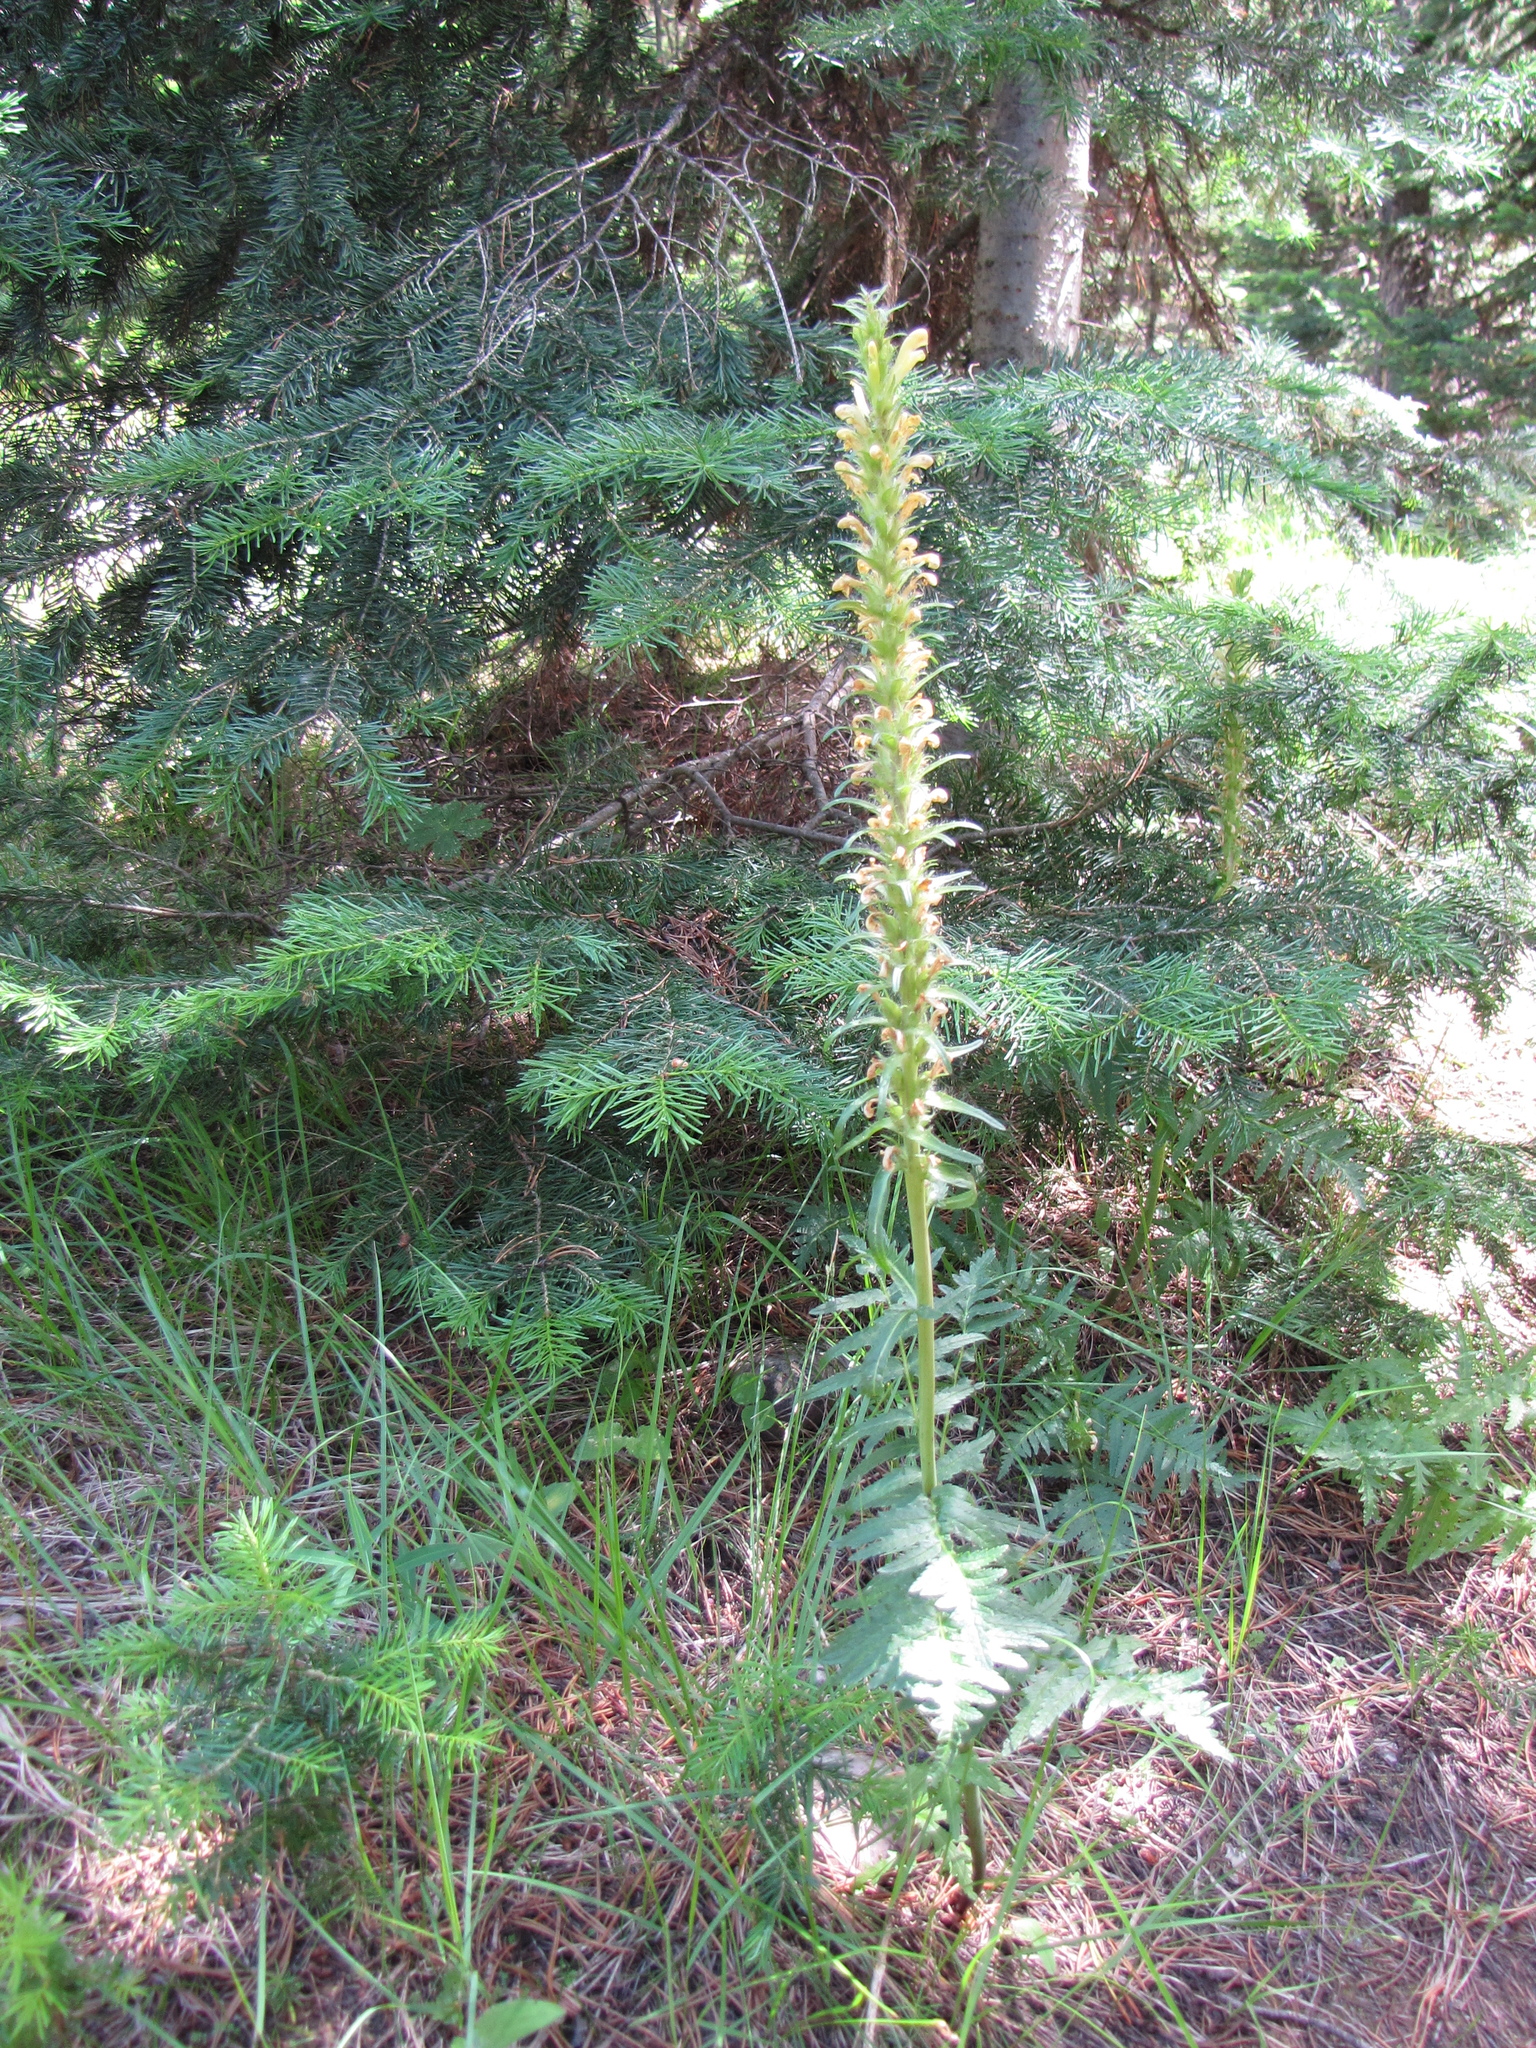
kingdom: Plantae
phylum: Tracheophyta
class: Magnoliopsida
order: Lamiales
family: Orobanchaceae
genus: Pedicularis
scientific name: Pedicularis bracteosa
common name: Bracted lousewort
